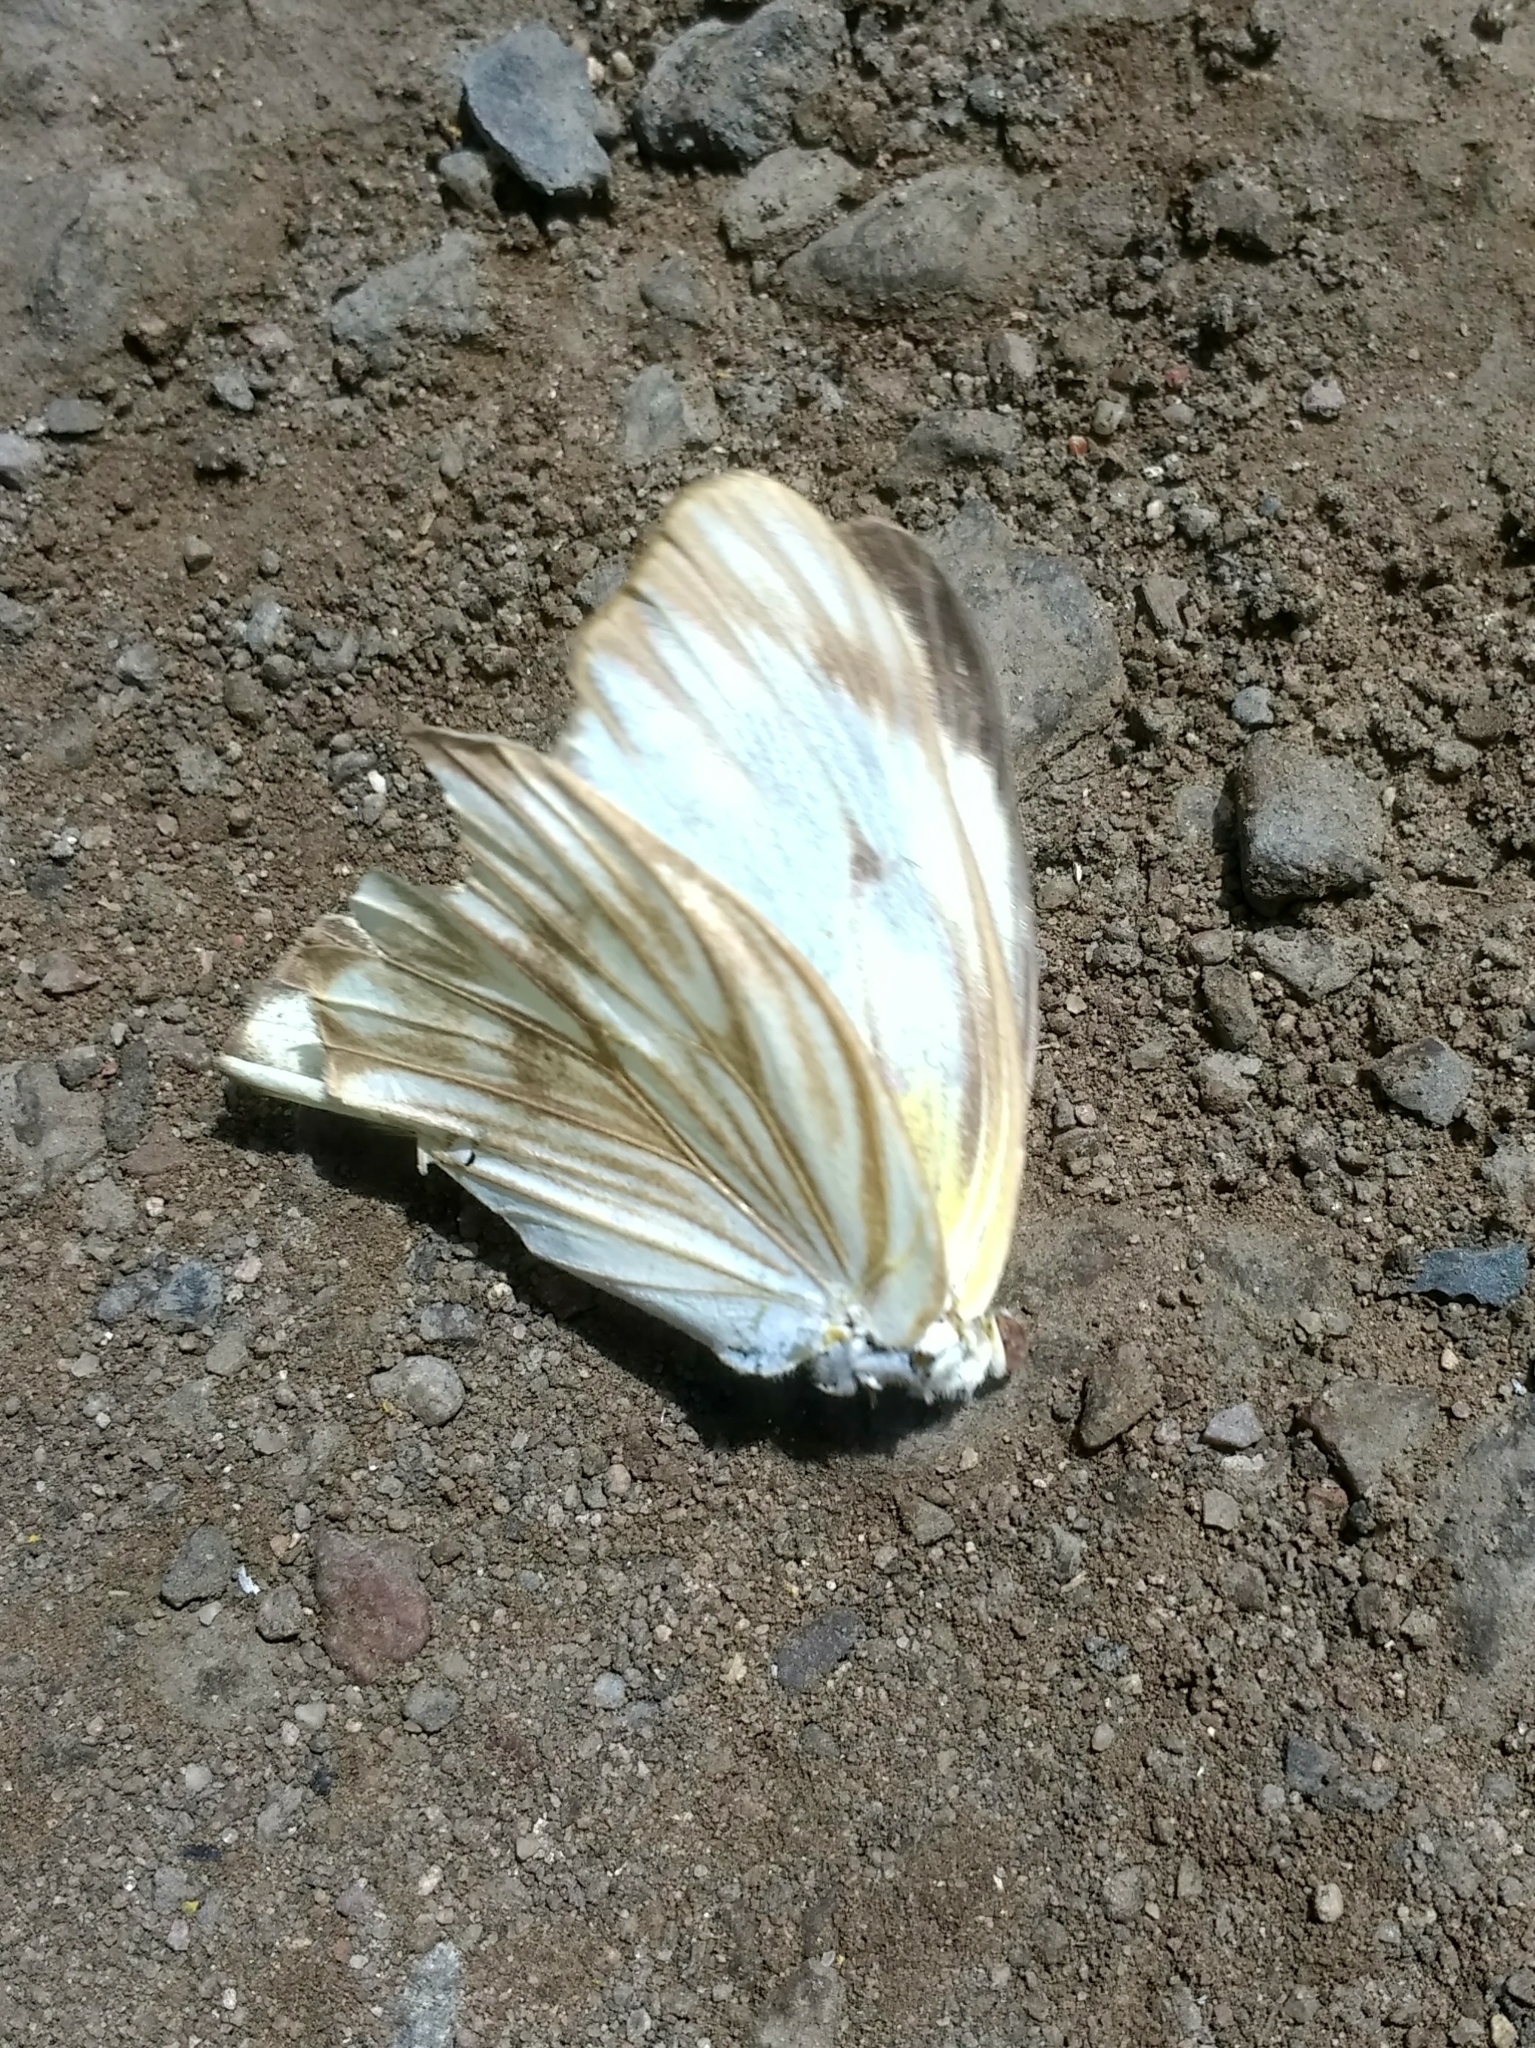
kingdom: Animalia
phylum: Arthropoda
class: Insecta
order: Lepidoptera
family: Pieridae
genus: Ascia
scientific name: Ascia monuste
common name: Great southern white
